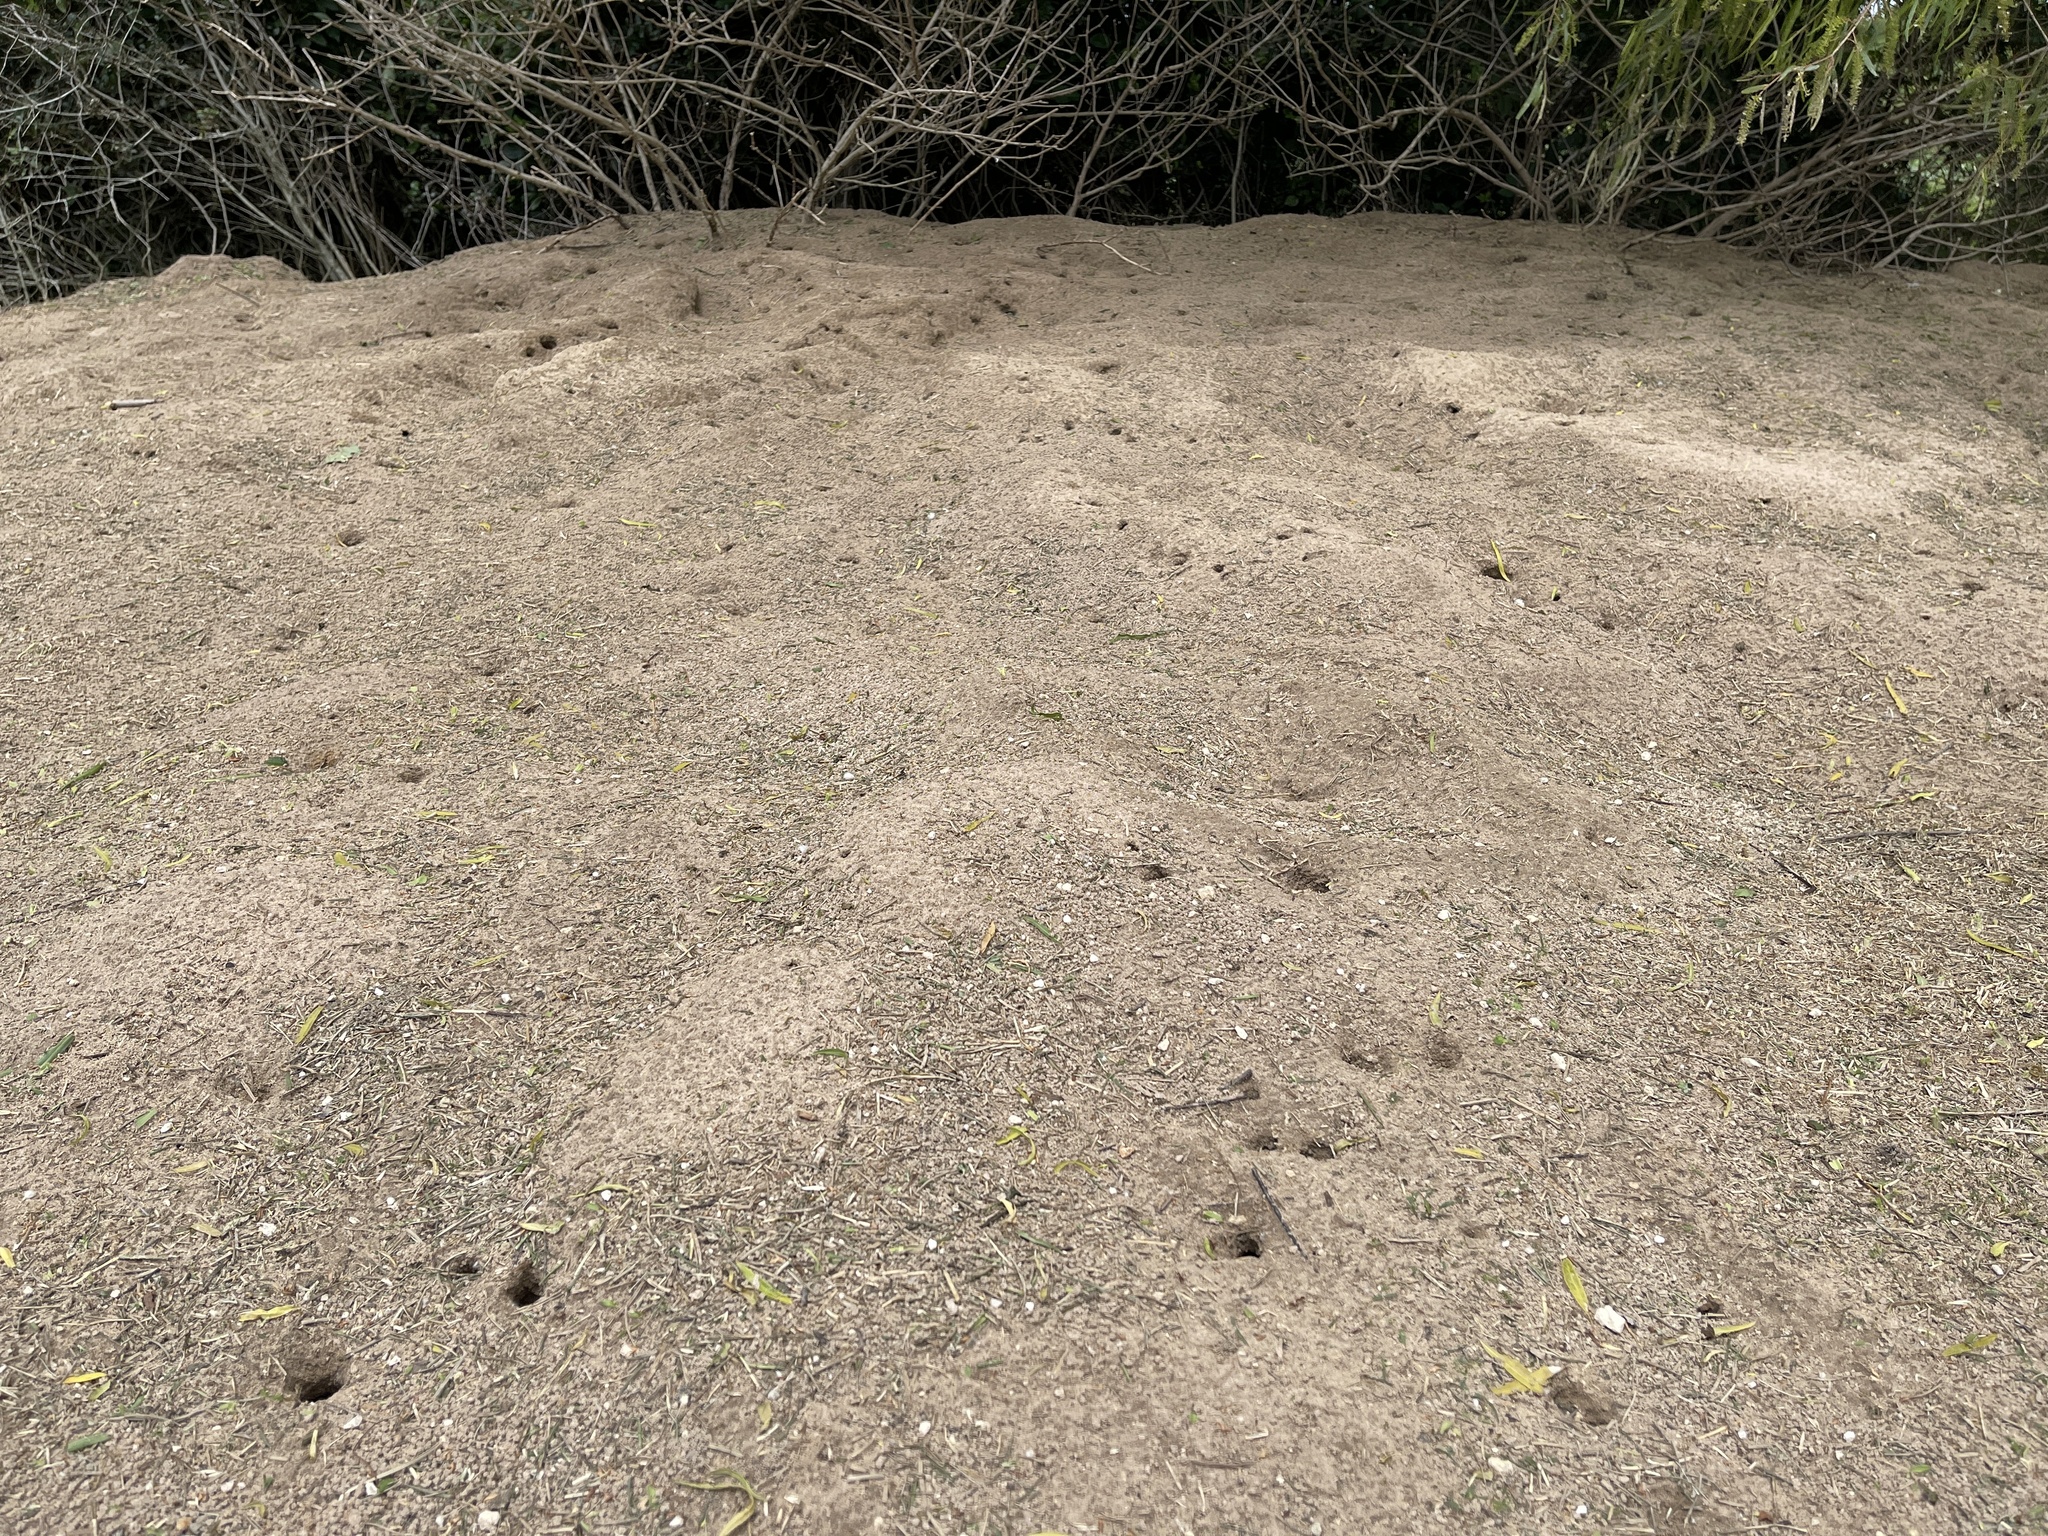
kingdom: Animalia
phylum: Arthropoda
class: Insecta
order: Hymenoptera
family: Formicidae
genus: Atta
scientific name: Atta texana
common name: Texas leafcutting ant
